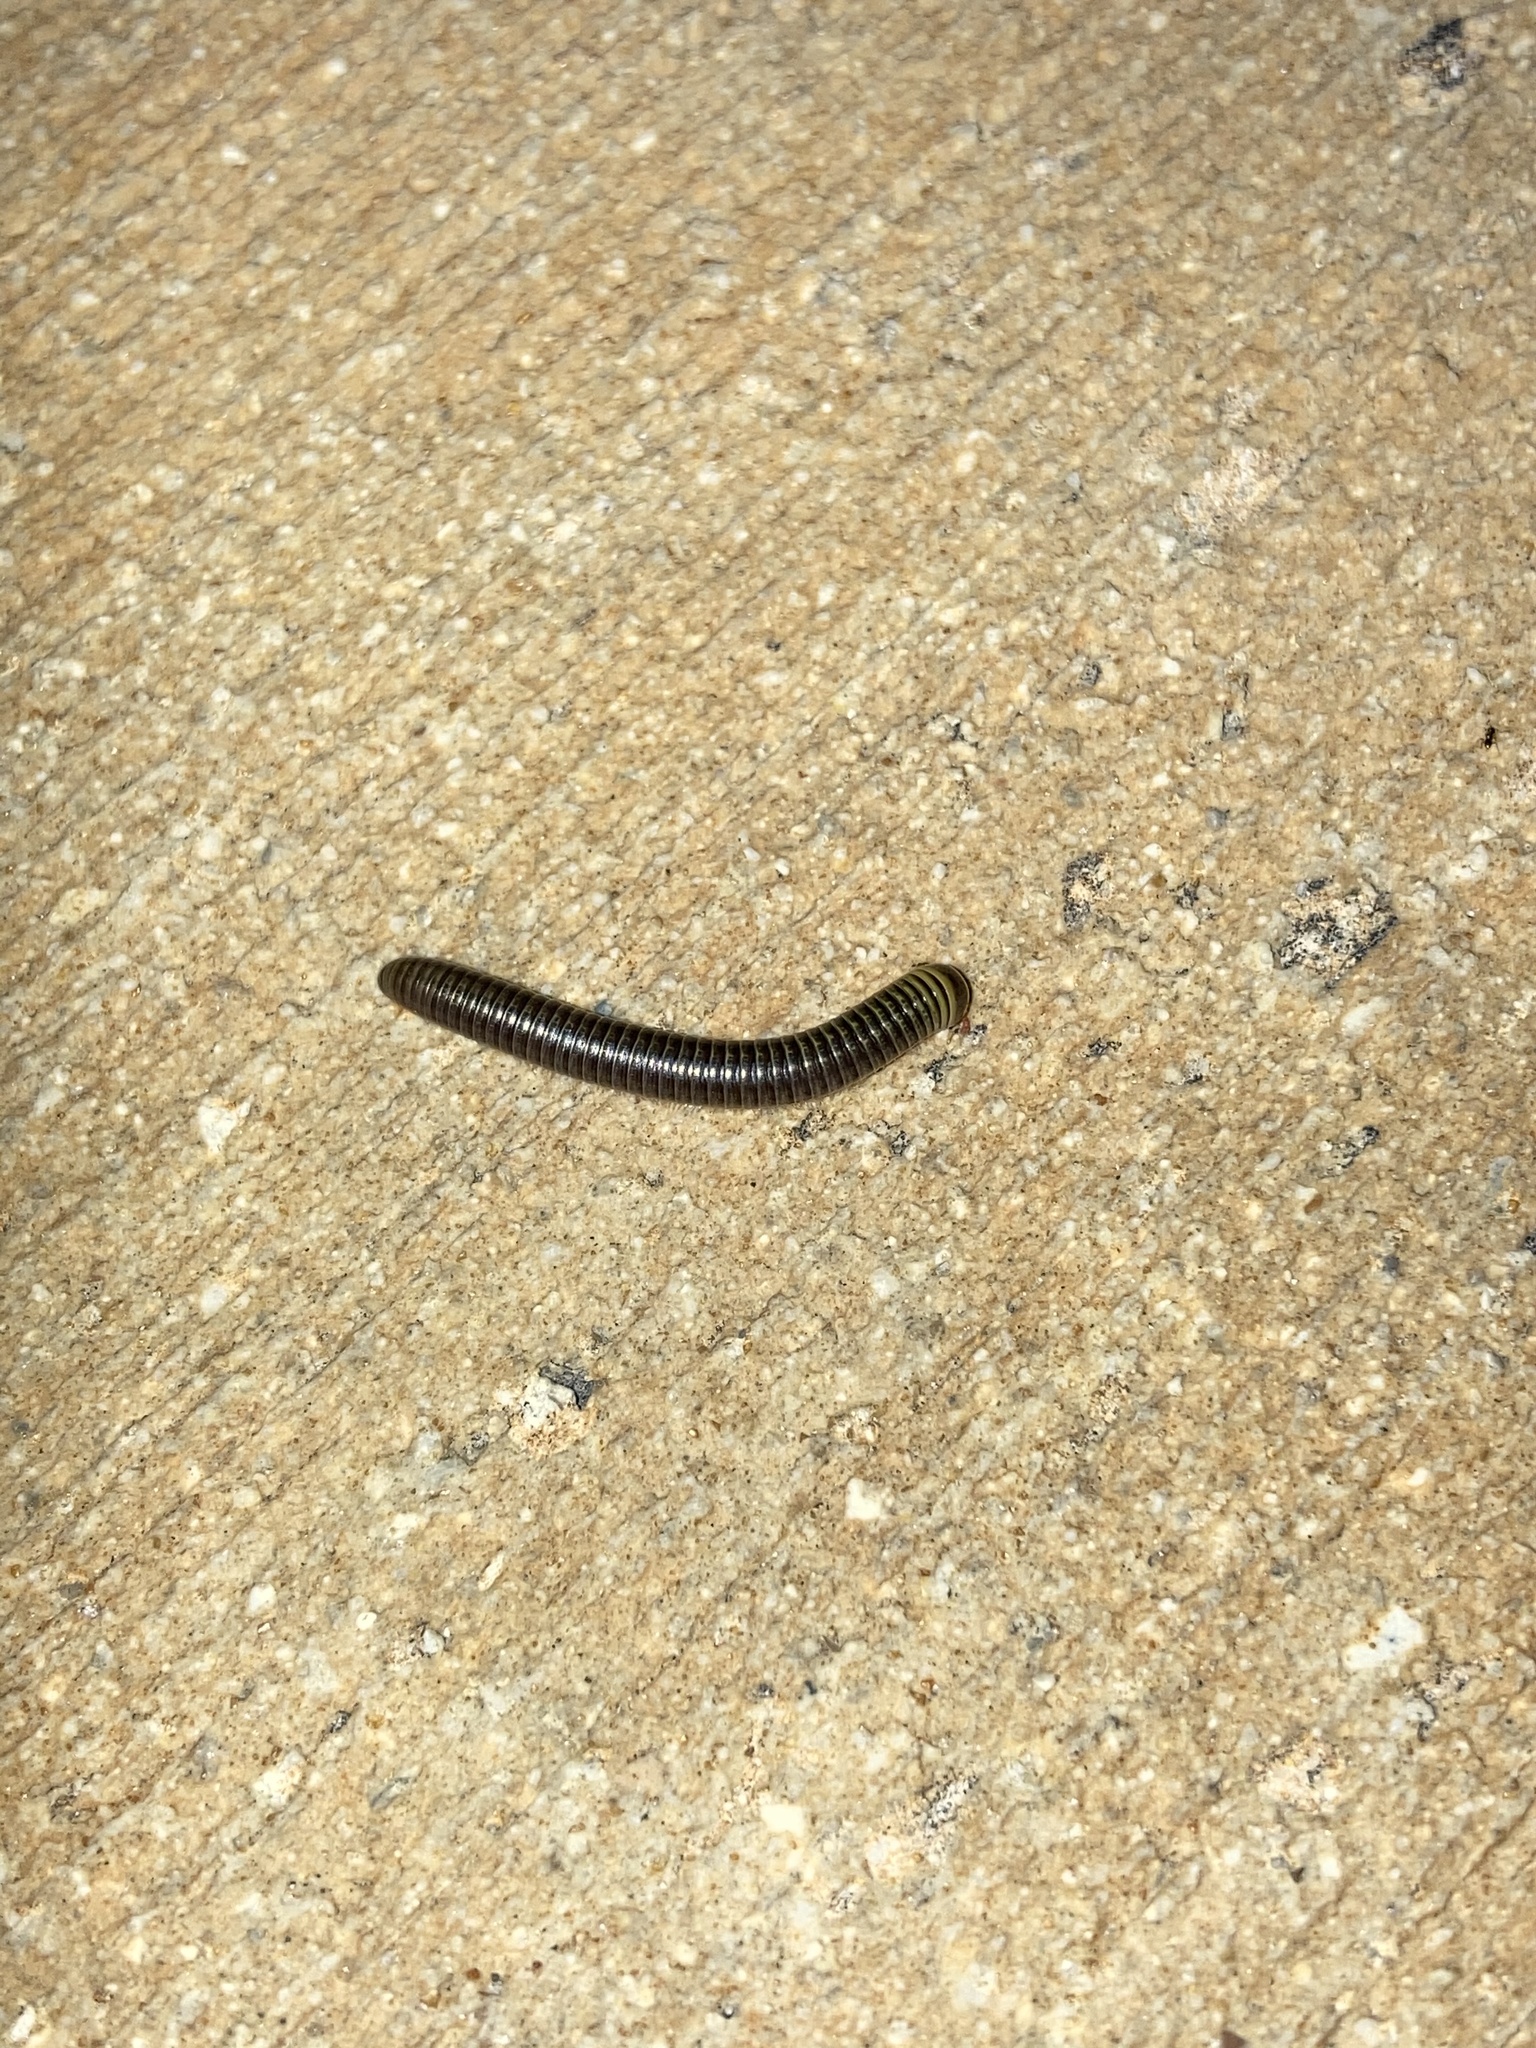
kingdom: Animalia
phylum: Arthropoda
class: Diplopoda
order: Spirobolida
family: Rhinocricidae
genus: Anadenobolus
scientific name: Anadenobolus monilicornis
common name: Caribbean millipede
